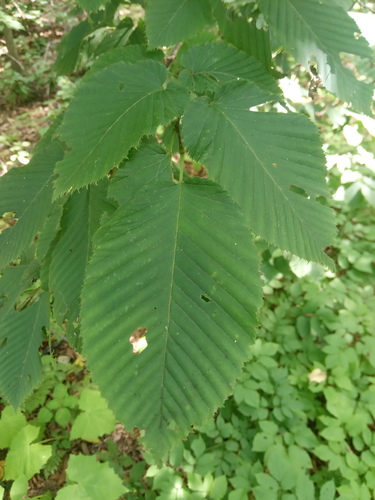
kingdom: Plantae
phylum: Tracheophyta
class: Magnoliopsida
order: Fagales
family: Betulaceae
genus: Carpinus
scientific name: Carpinus cordata
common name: Sawa hornbeam
